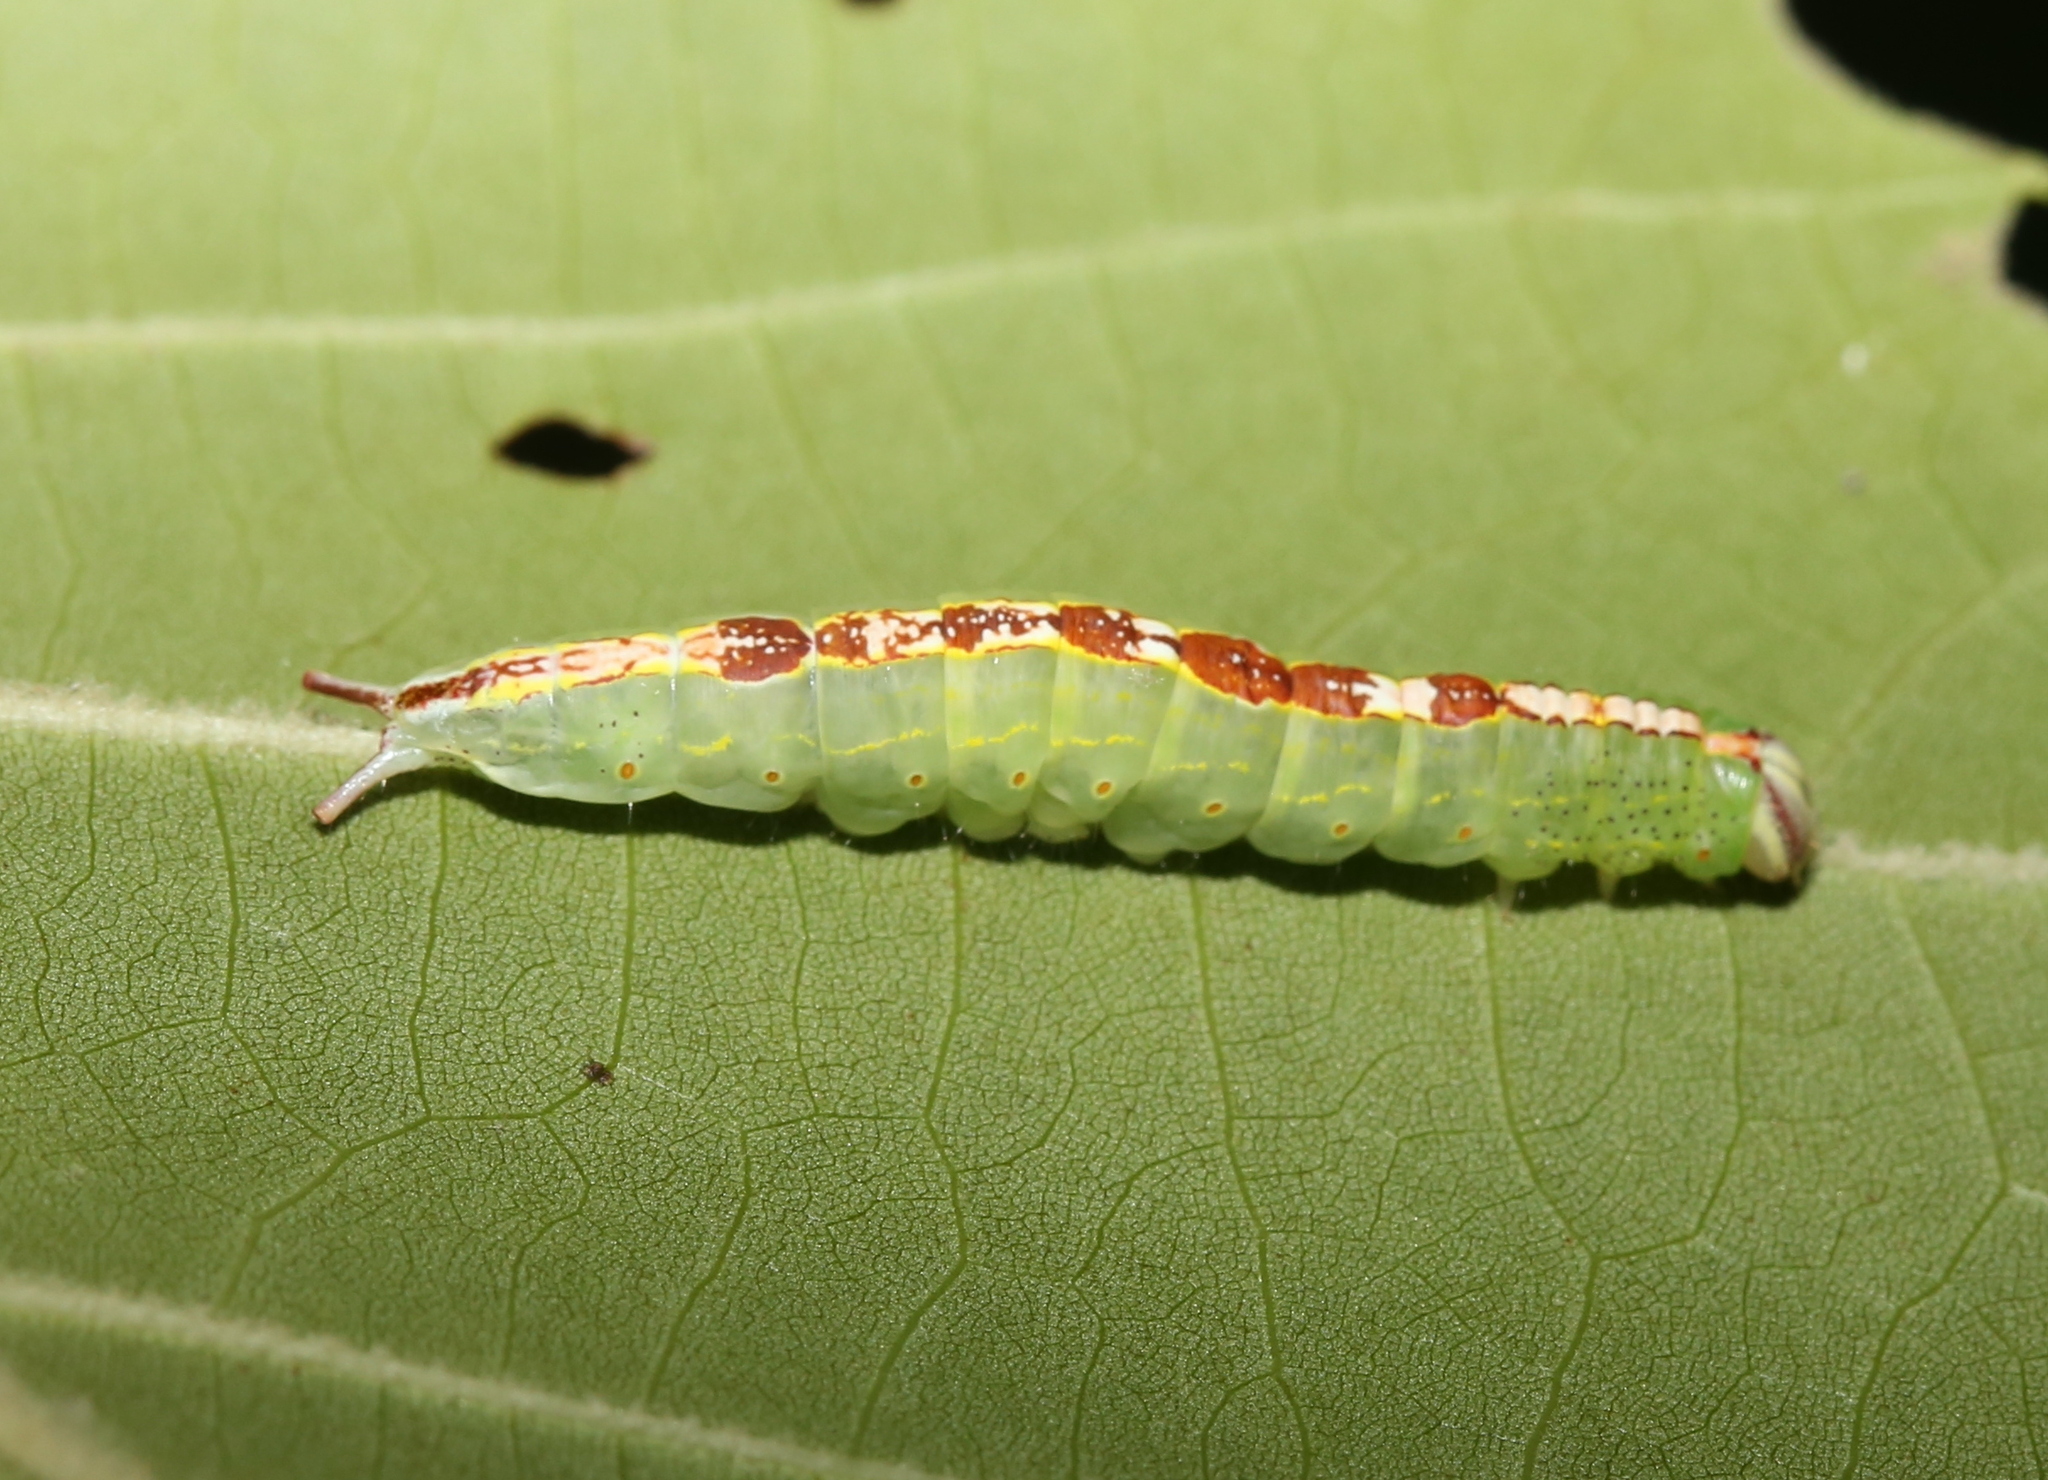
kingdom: Animalia
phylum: Arthropoda
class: Insecta
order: Lepidoptera
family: Notodontidae
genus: Misogada
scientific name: Misogada unicolor
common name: Drab prominent
